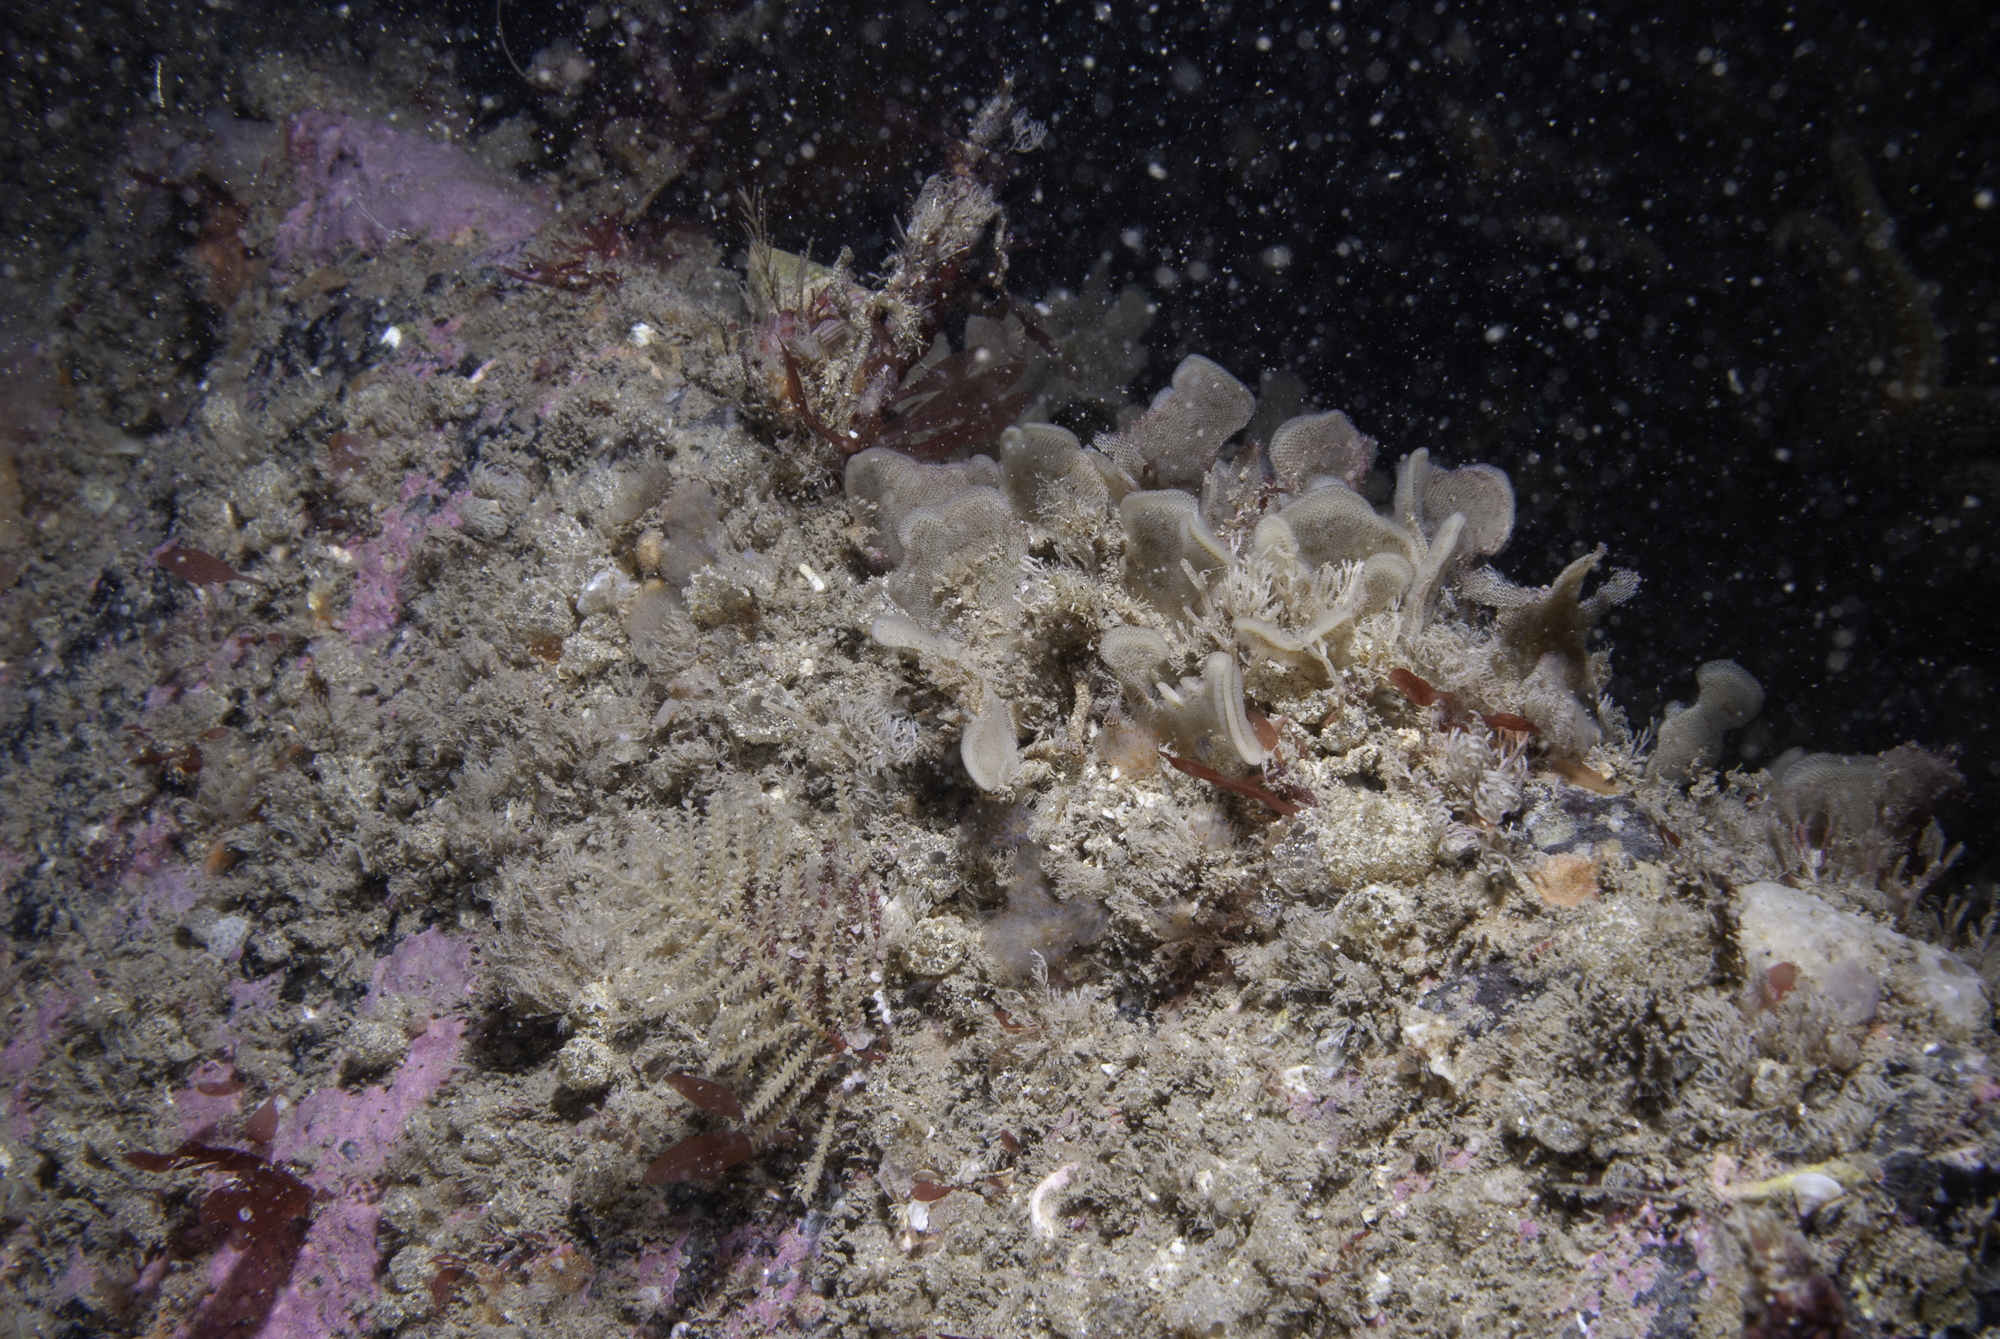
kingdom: Animalia
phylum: Cnidaria
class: Hydrozoa
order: Leptothecata
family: Sertulariidae
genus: Abietinaria
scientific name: Abietinaria abietina
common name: Sea fir
